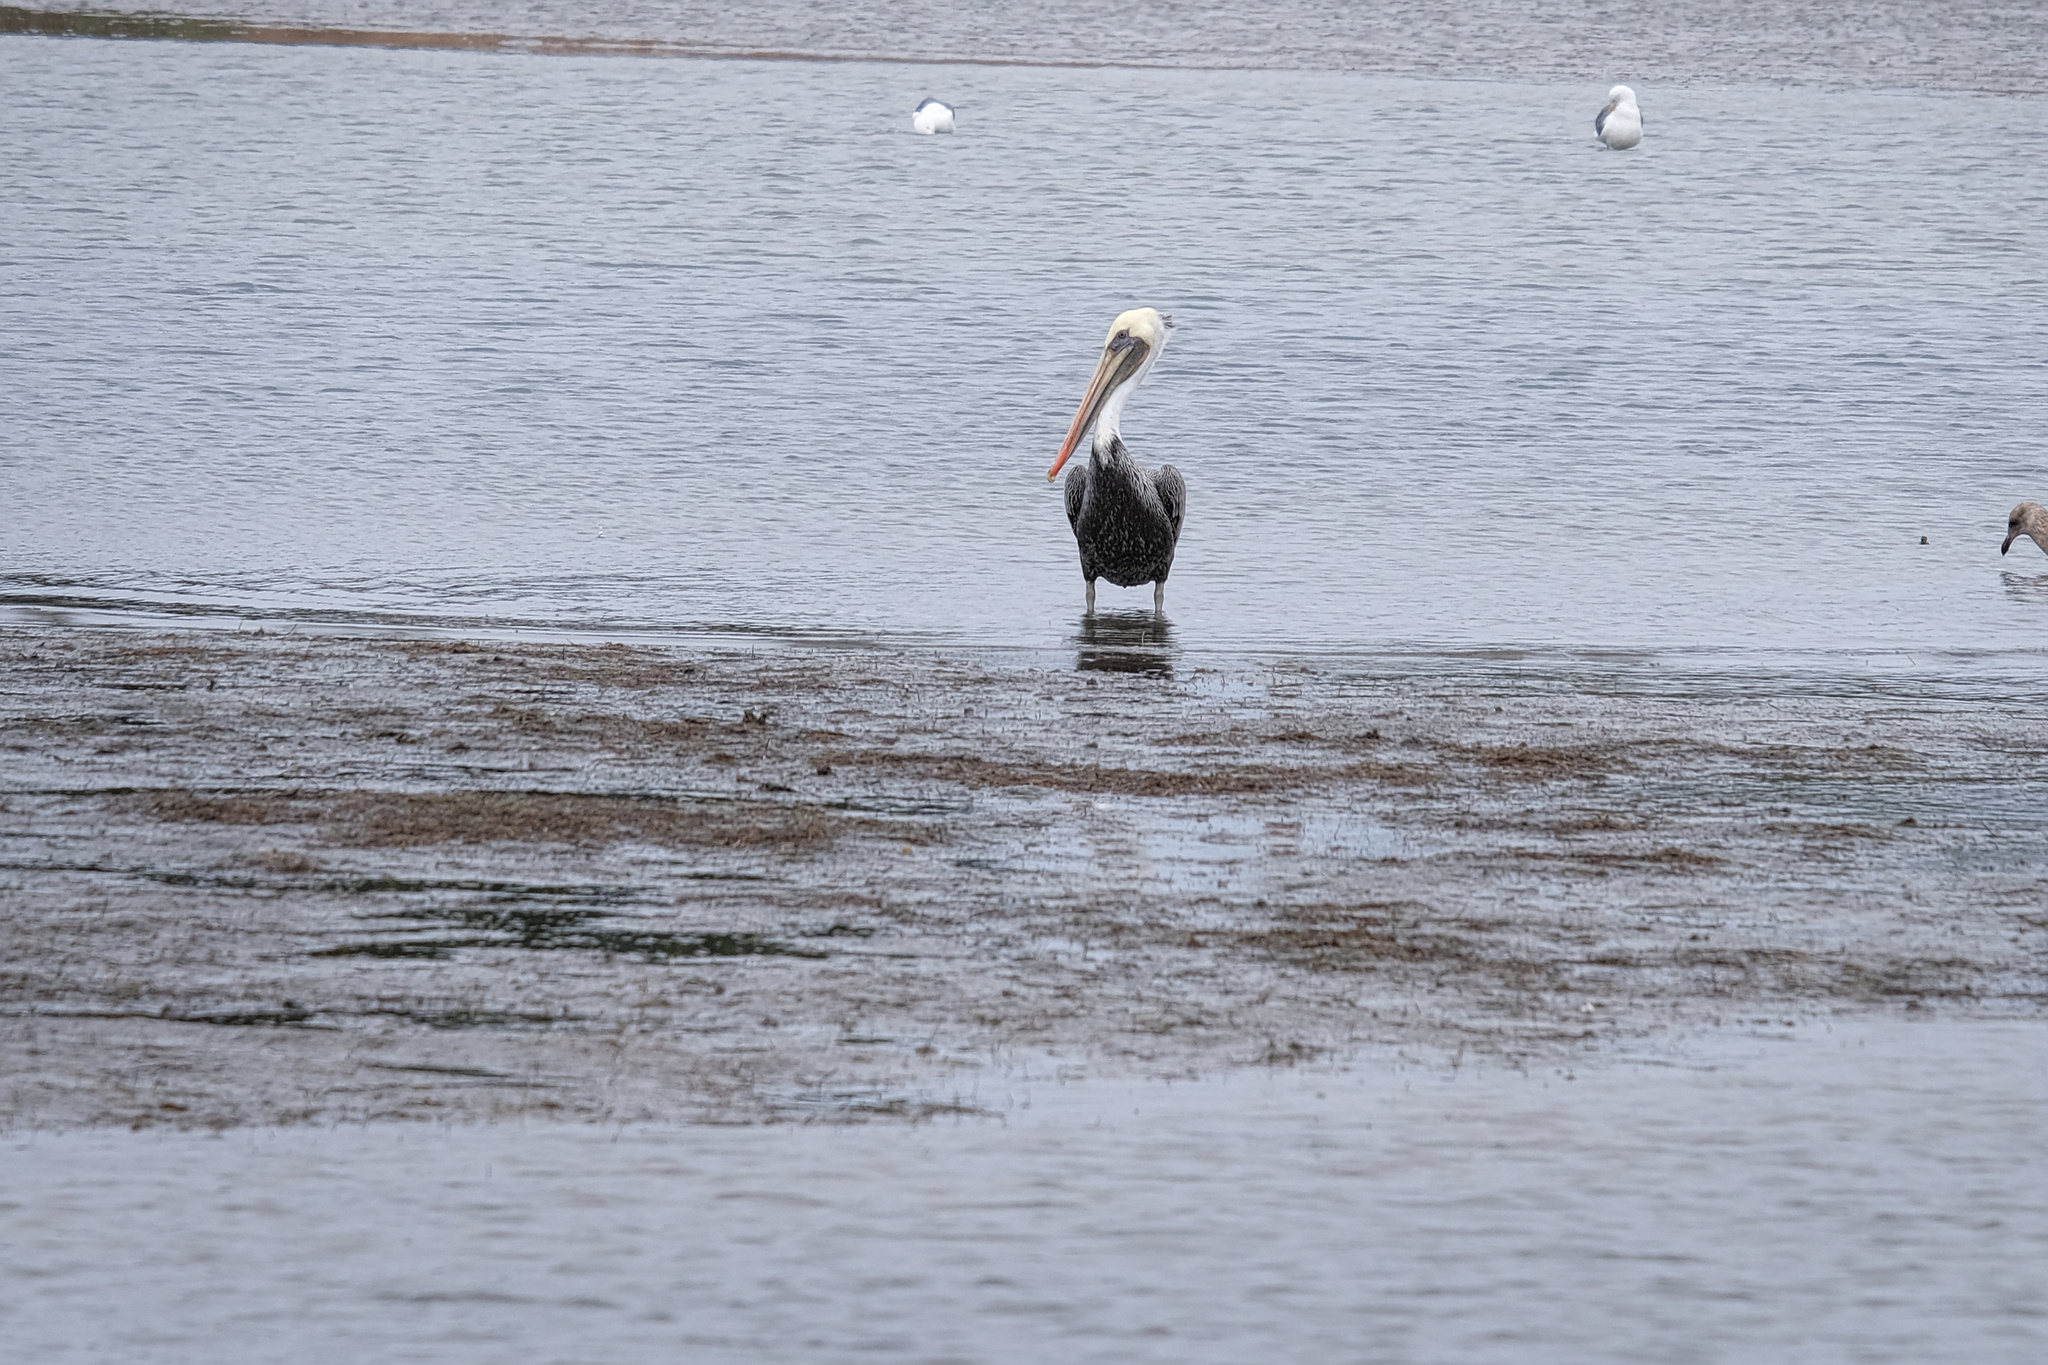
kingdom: Animalia
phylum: Chordata
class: Aves
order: Pelecaniformes
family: Pelecanidae
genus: Pelecanus
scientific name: Pelecanus occidentalis
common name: Brown pelican
